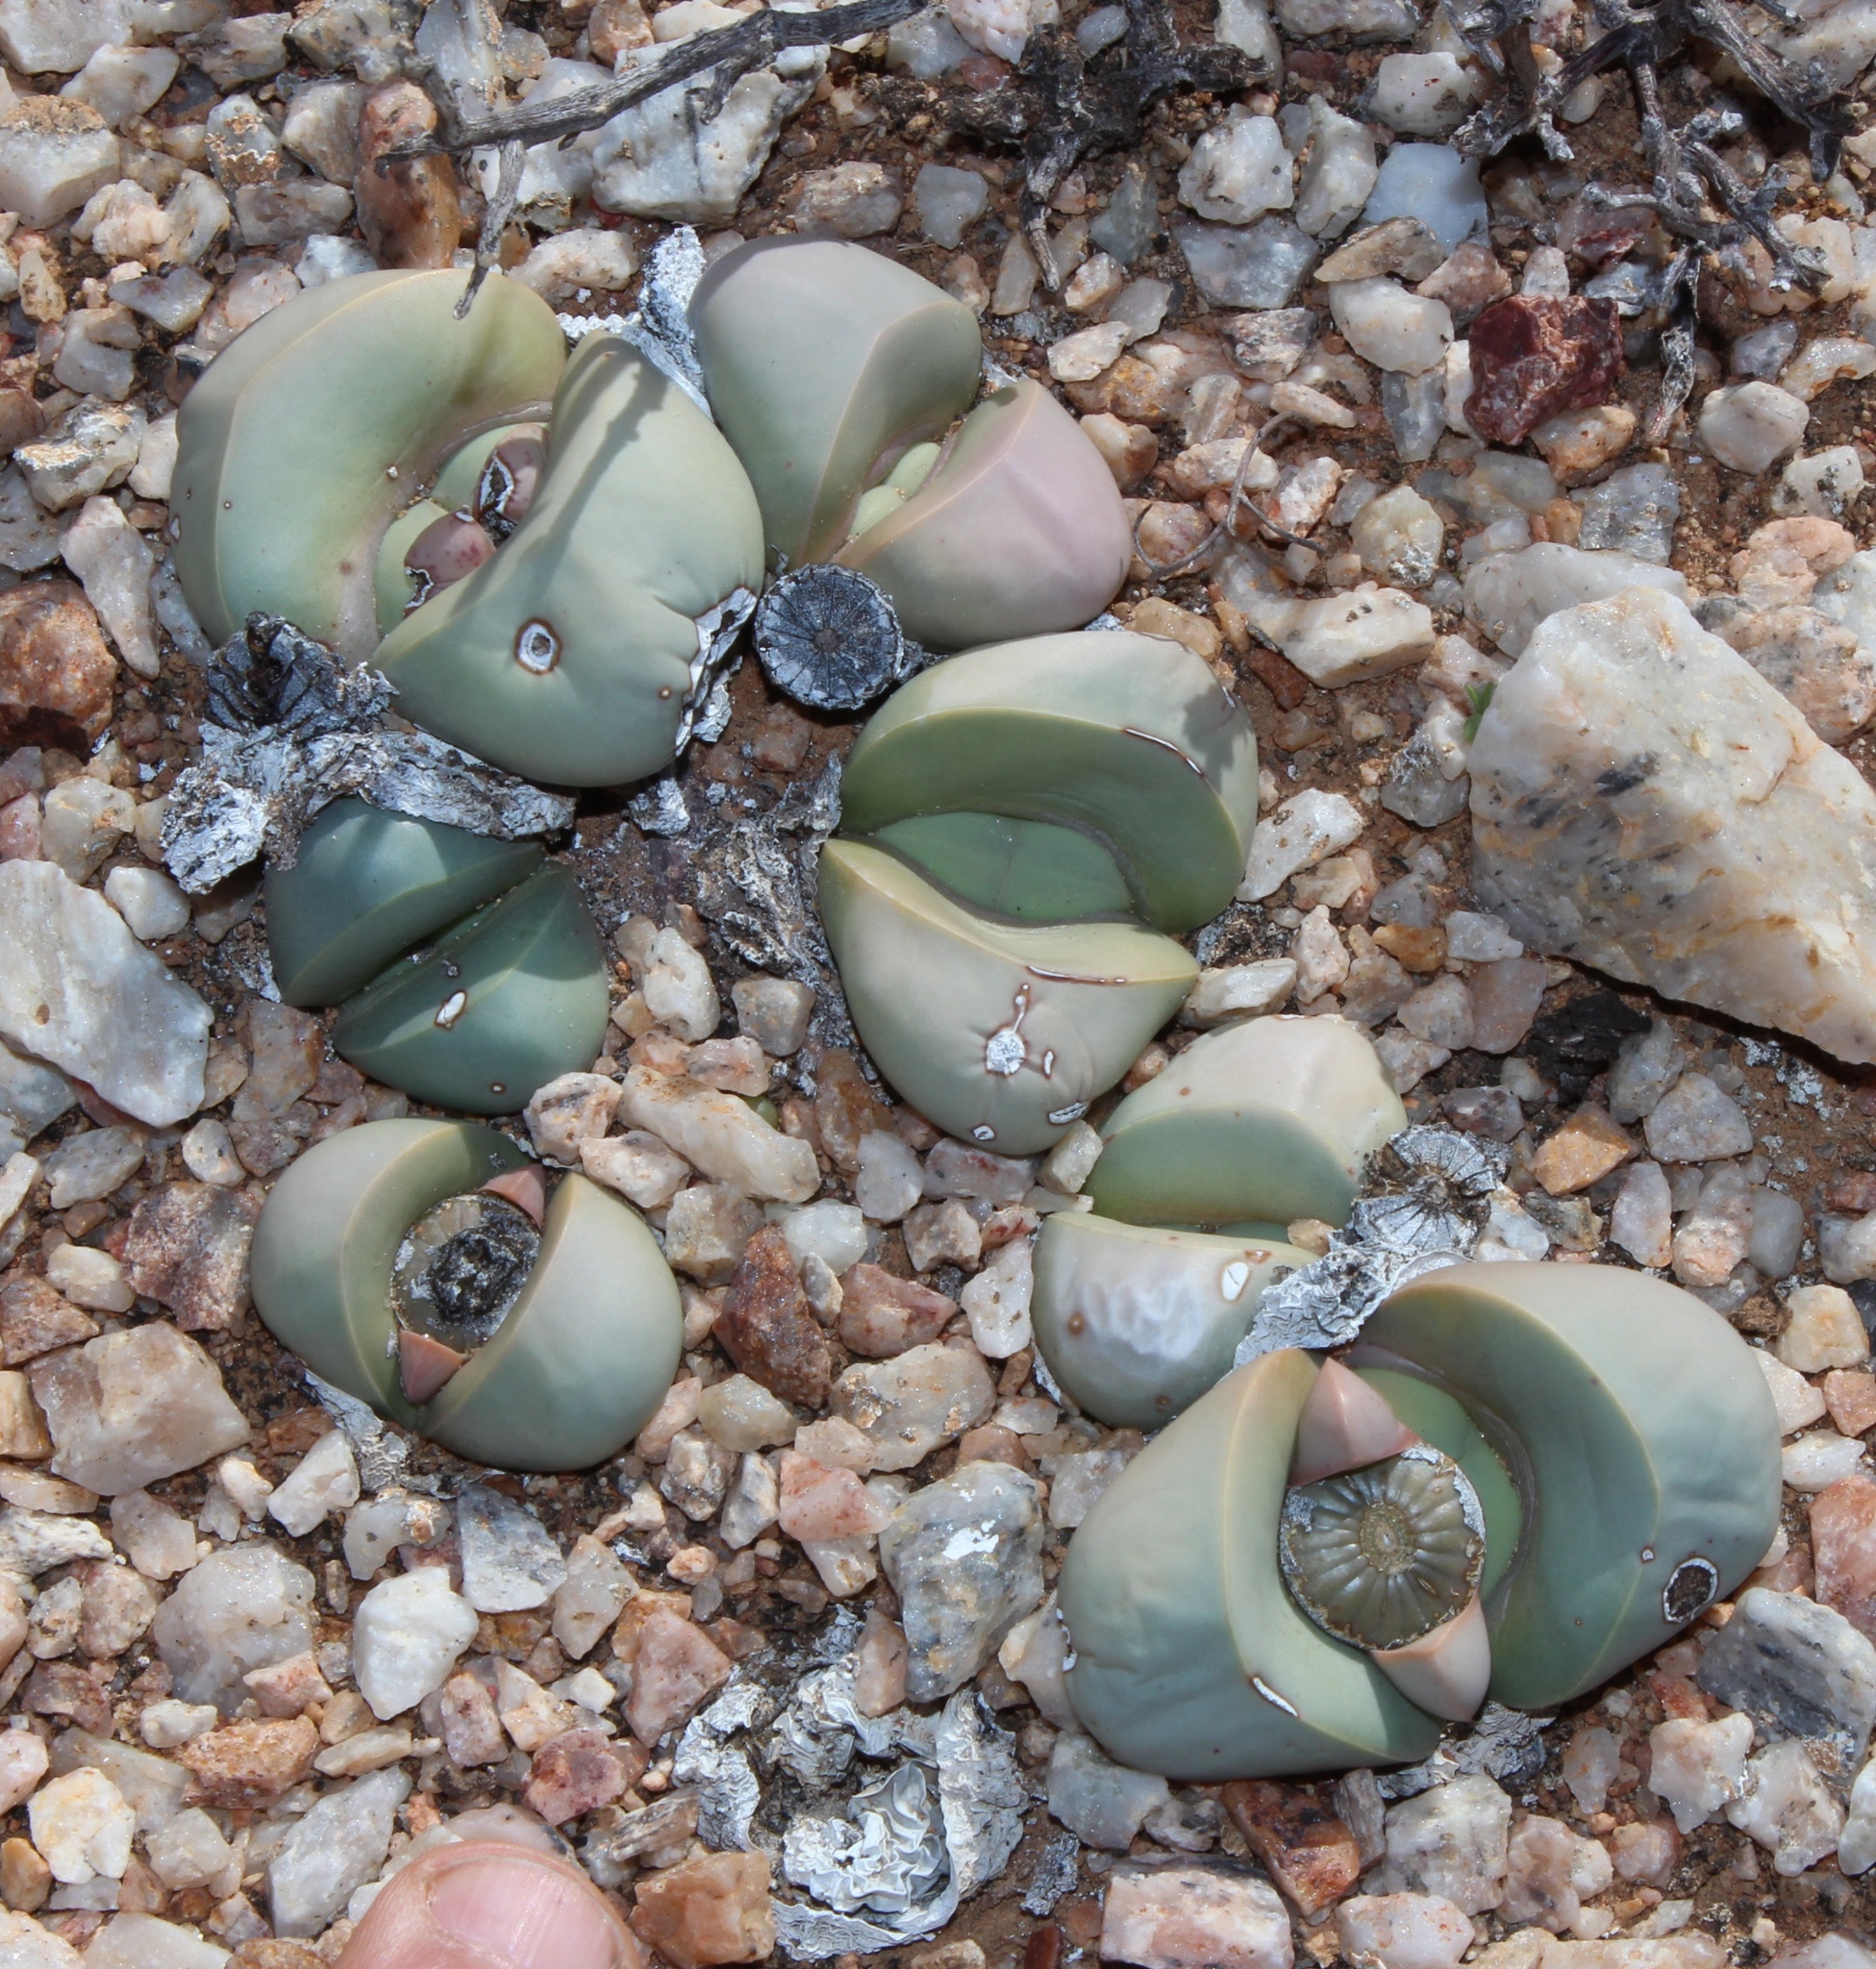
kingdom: Plantae
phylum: Tracheophyta
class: Magnoliopsida
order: Caryophyllales
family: Aizoaceae
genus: Argyroderma
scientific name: Argyroderma delaetii
